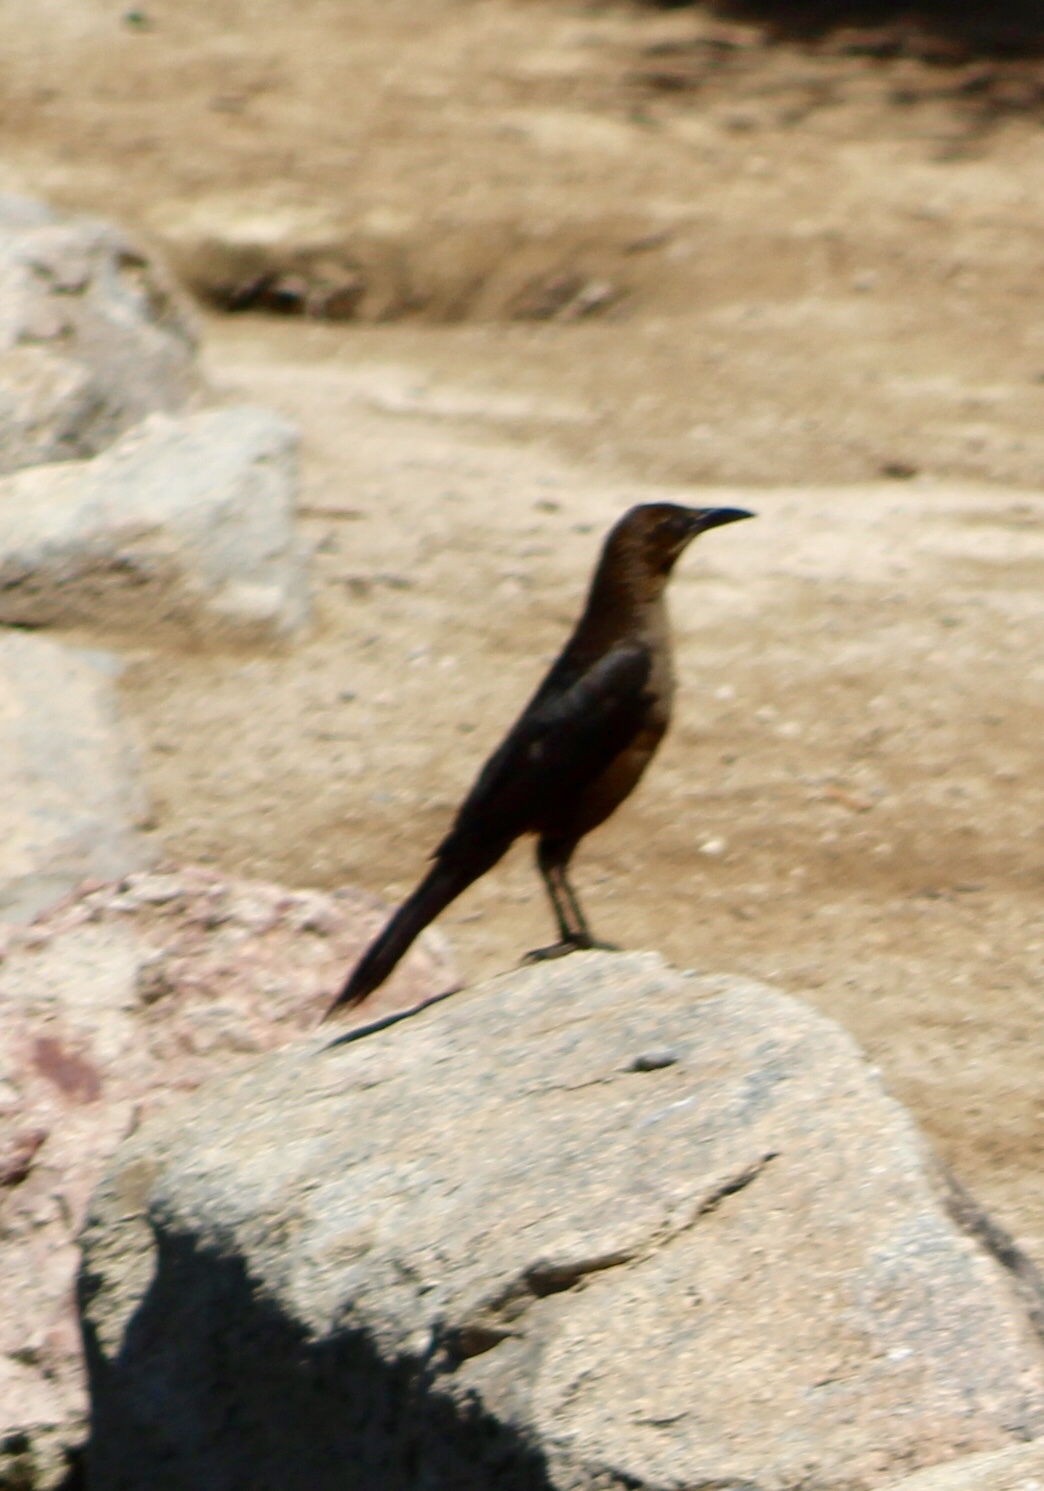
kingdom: Animalia
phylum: Chordata
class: Aves
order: Passeriformes
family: Icteridae
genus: Quiscalus
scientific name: Quiscalus mexicanus
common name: Great-tailed grackle
